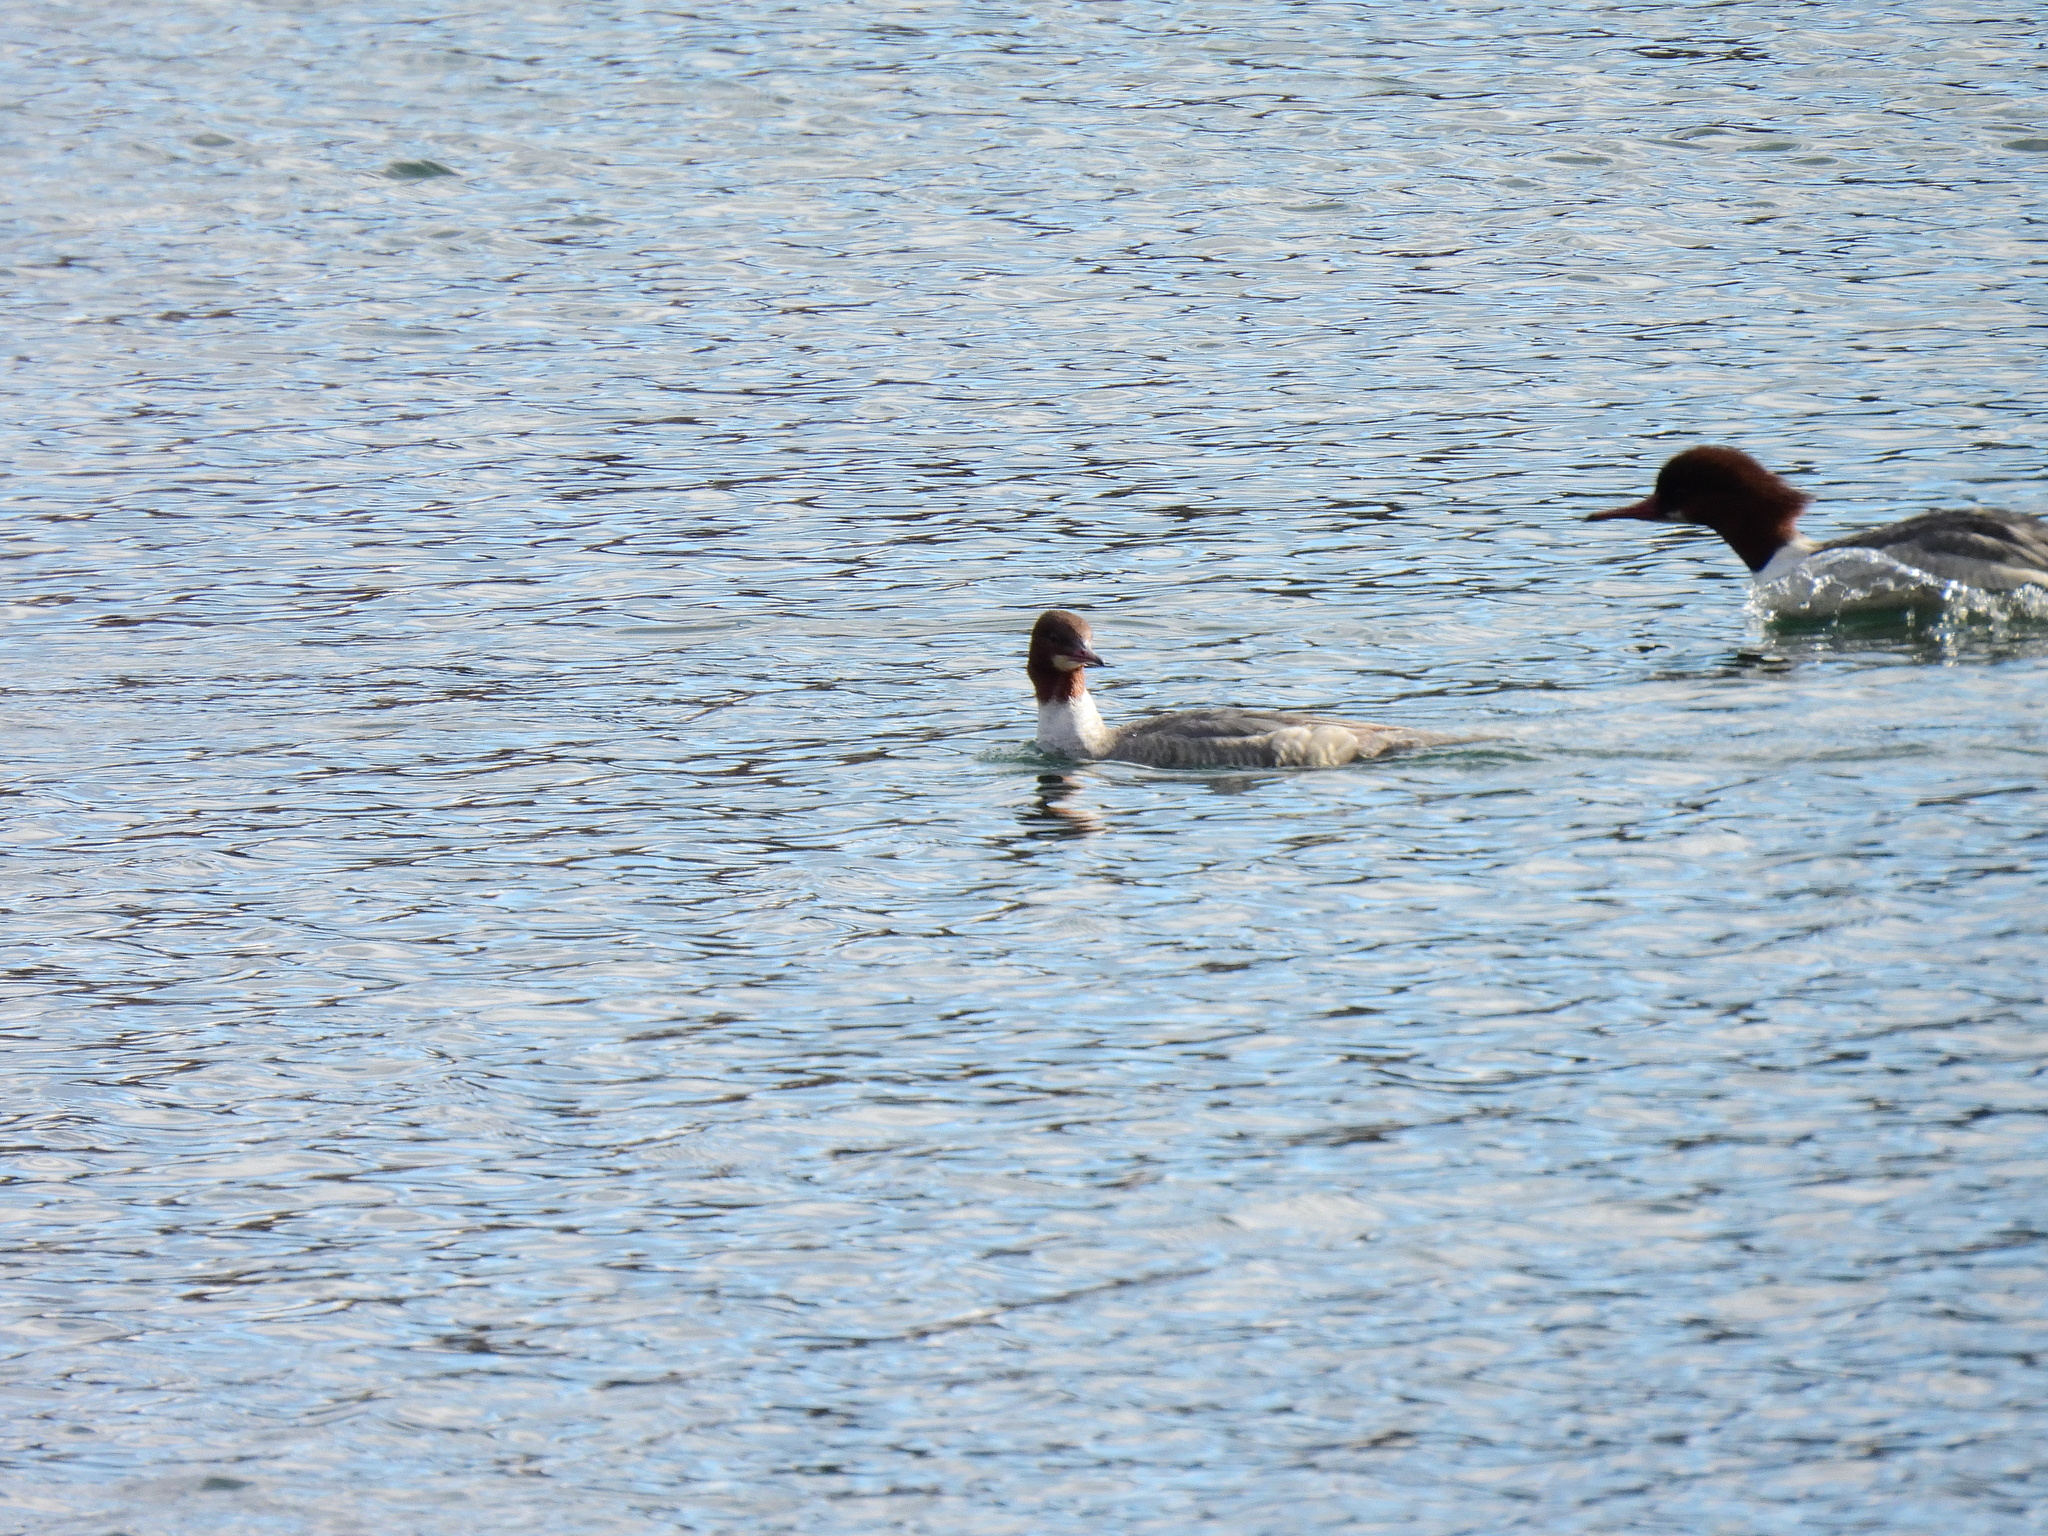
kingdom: Animalia
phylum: Chordata
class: Aves
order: Anseriformes
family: Anatidae
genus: Mergus
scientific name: Mergus merganser
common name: Common merganser
